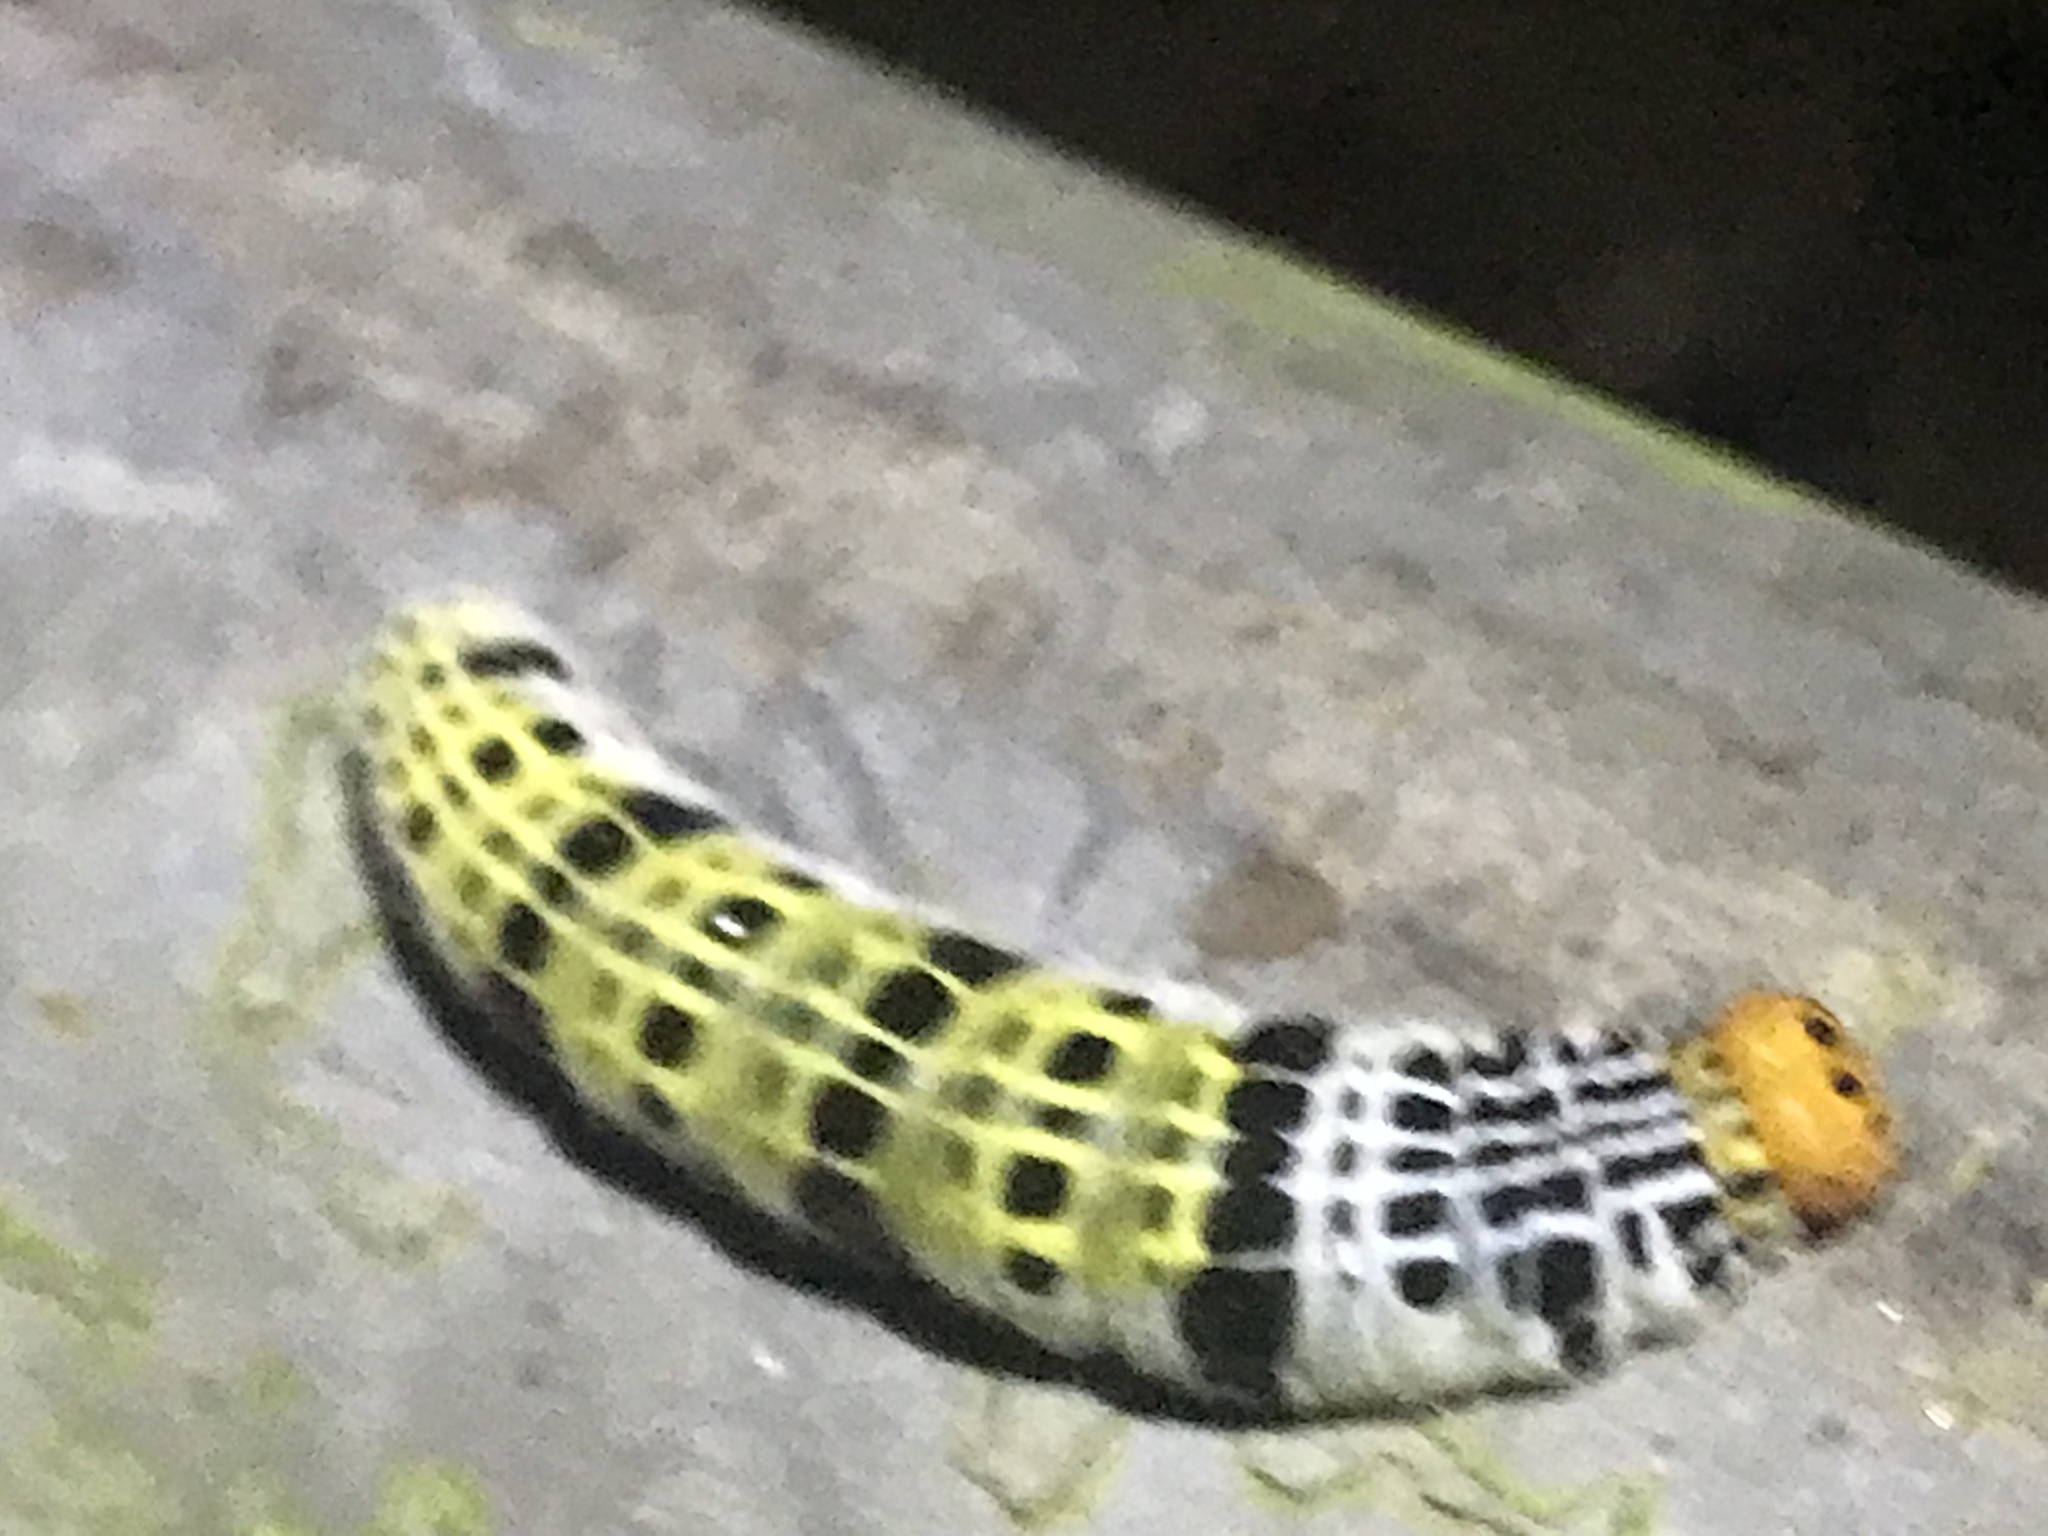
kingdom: Animalia
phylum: Arthropoda
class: Insecta
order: Lepidoptera
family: Hesperiidae
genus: Bibasis
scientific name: Bibasis gomata
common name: Pale green awlet
